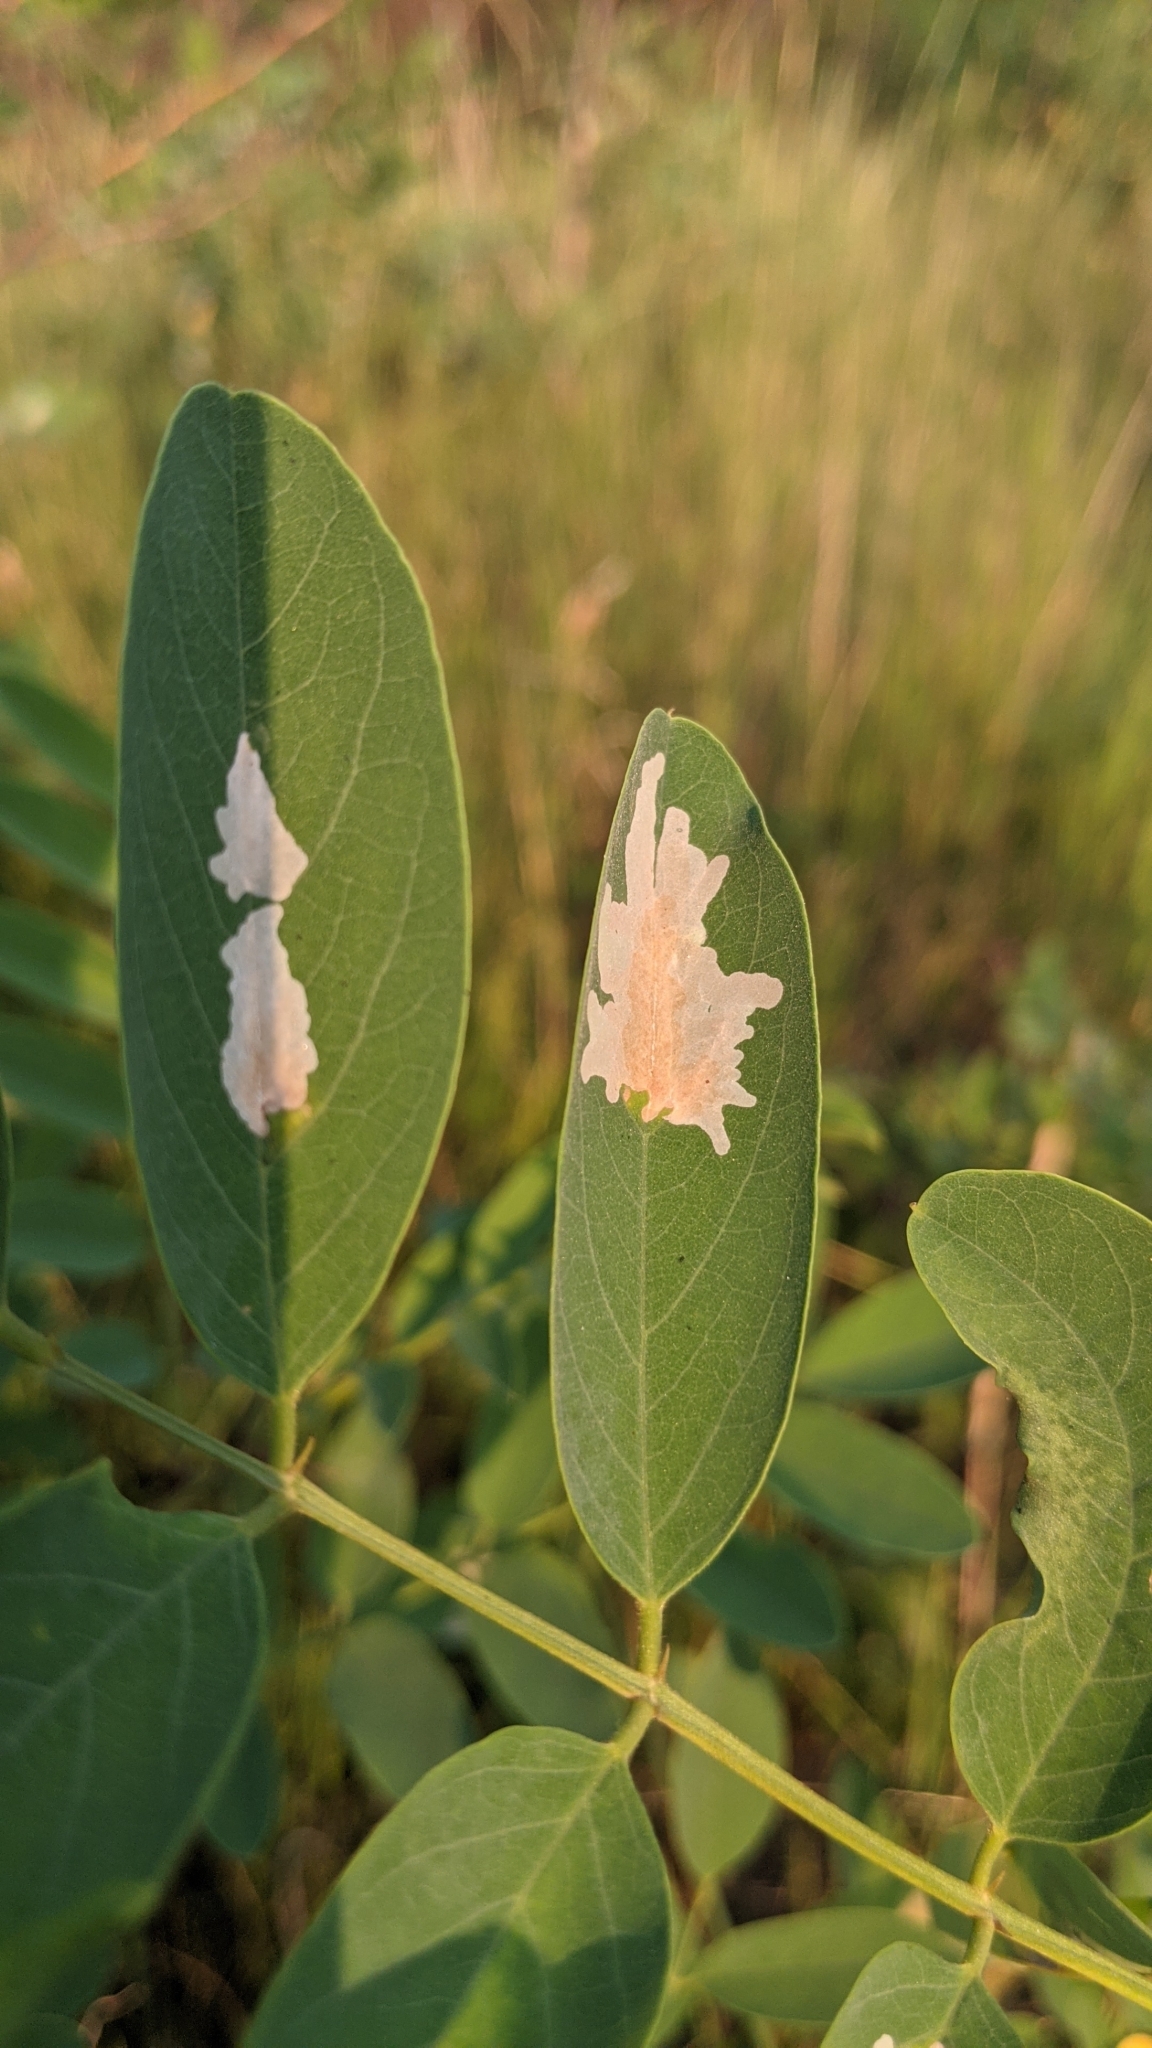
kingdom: Animalia
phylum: Arthropoda
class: Insecta
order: Lepidoptera
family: Gracillariidae
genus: Parectopa
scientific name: Parectopa robiniella
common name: Locust digitate leafminer
